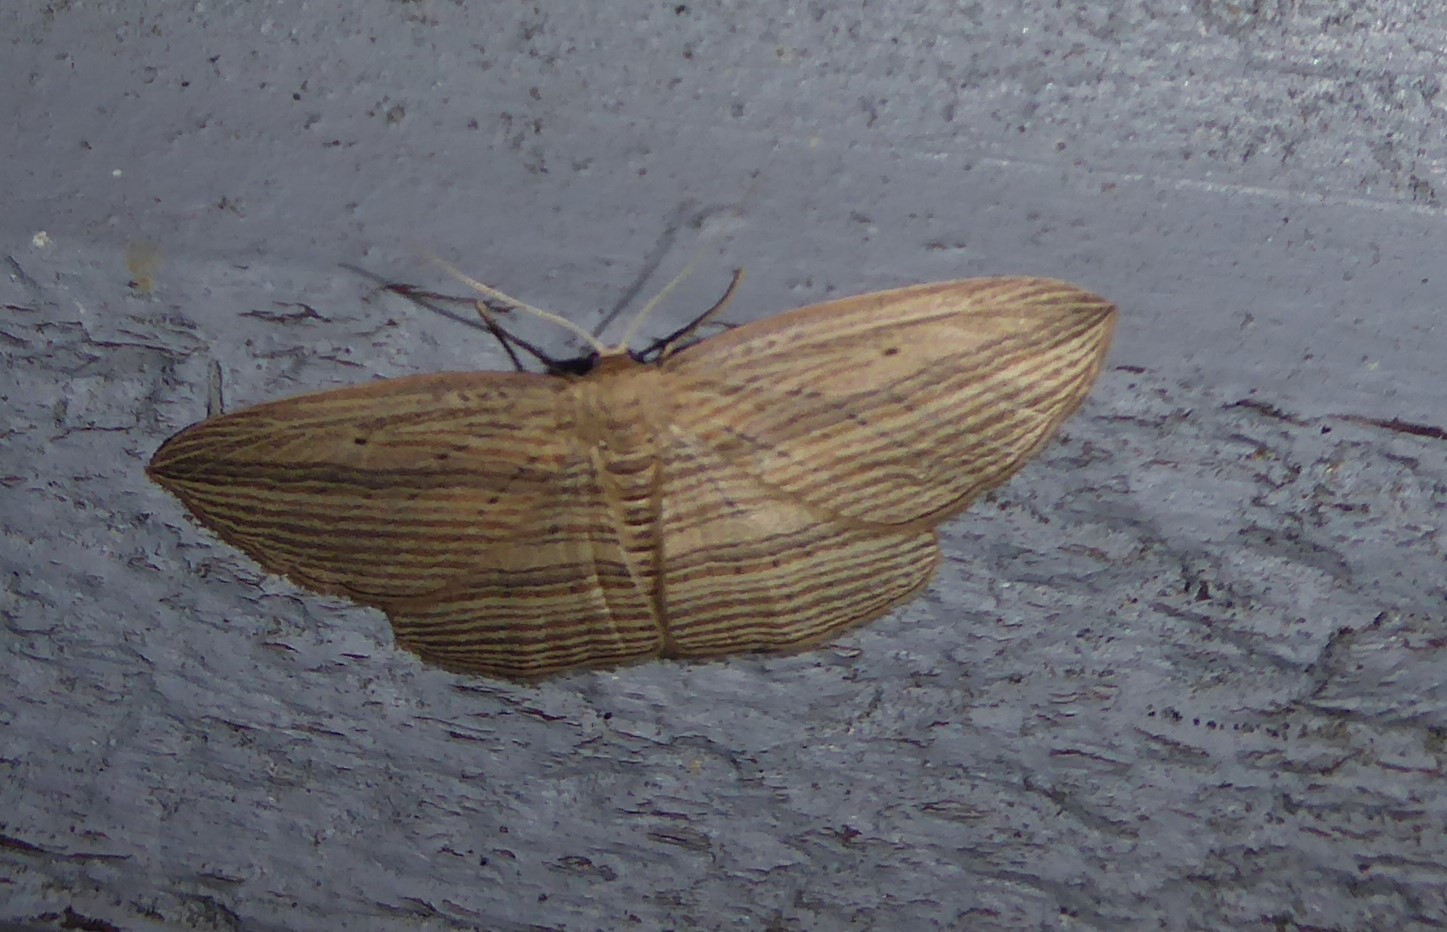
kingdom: Animalia
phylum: Arthropoda
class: Insecta
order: Lepidoptera
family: Geometridae
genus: Epiphryne
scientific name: Epiphryne verriculata
